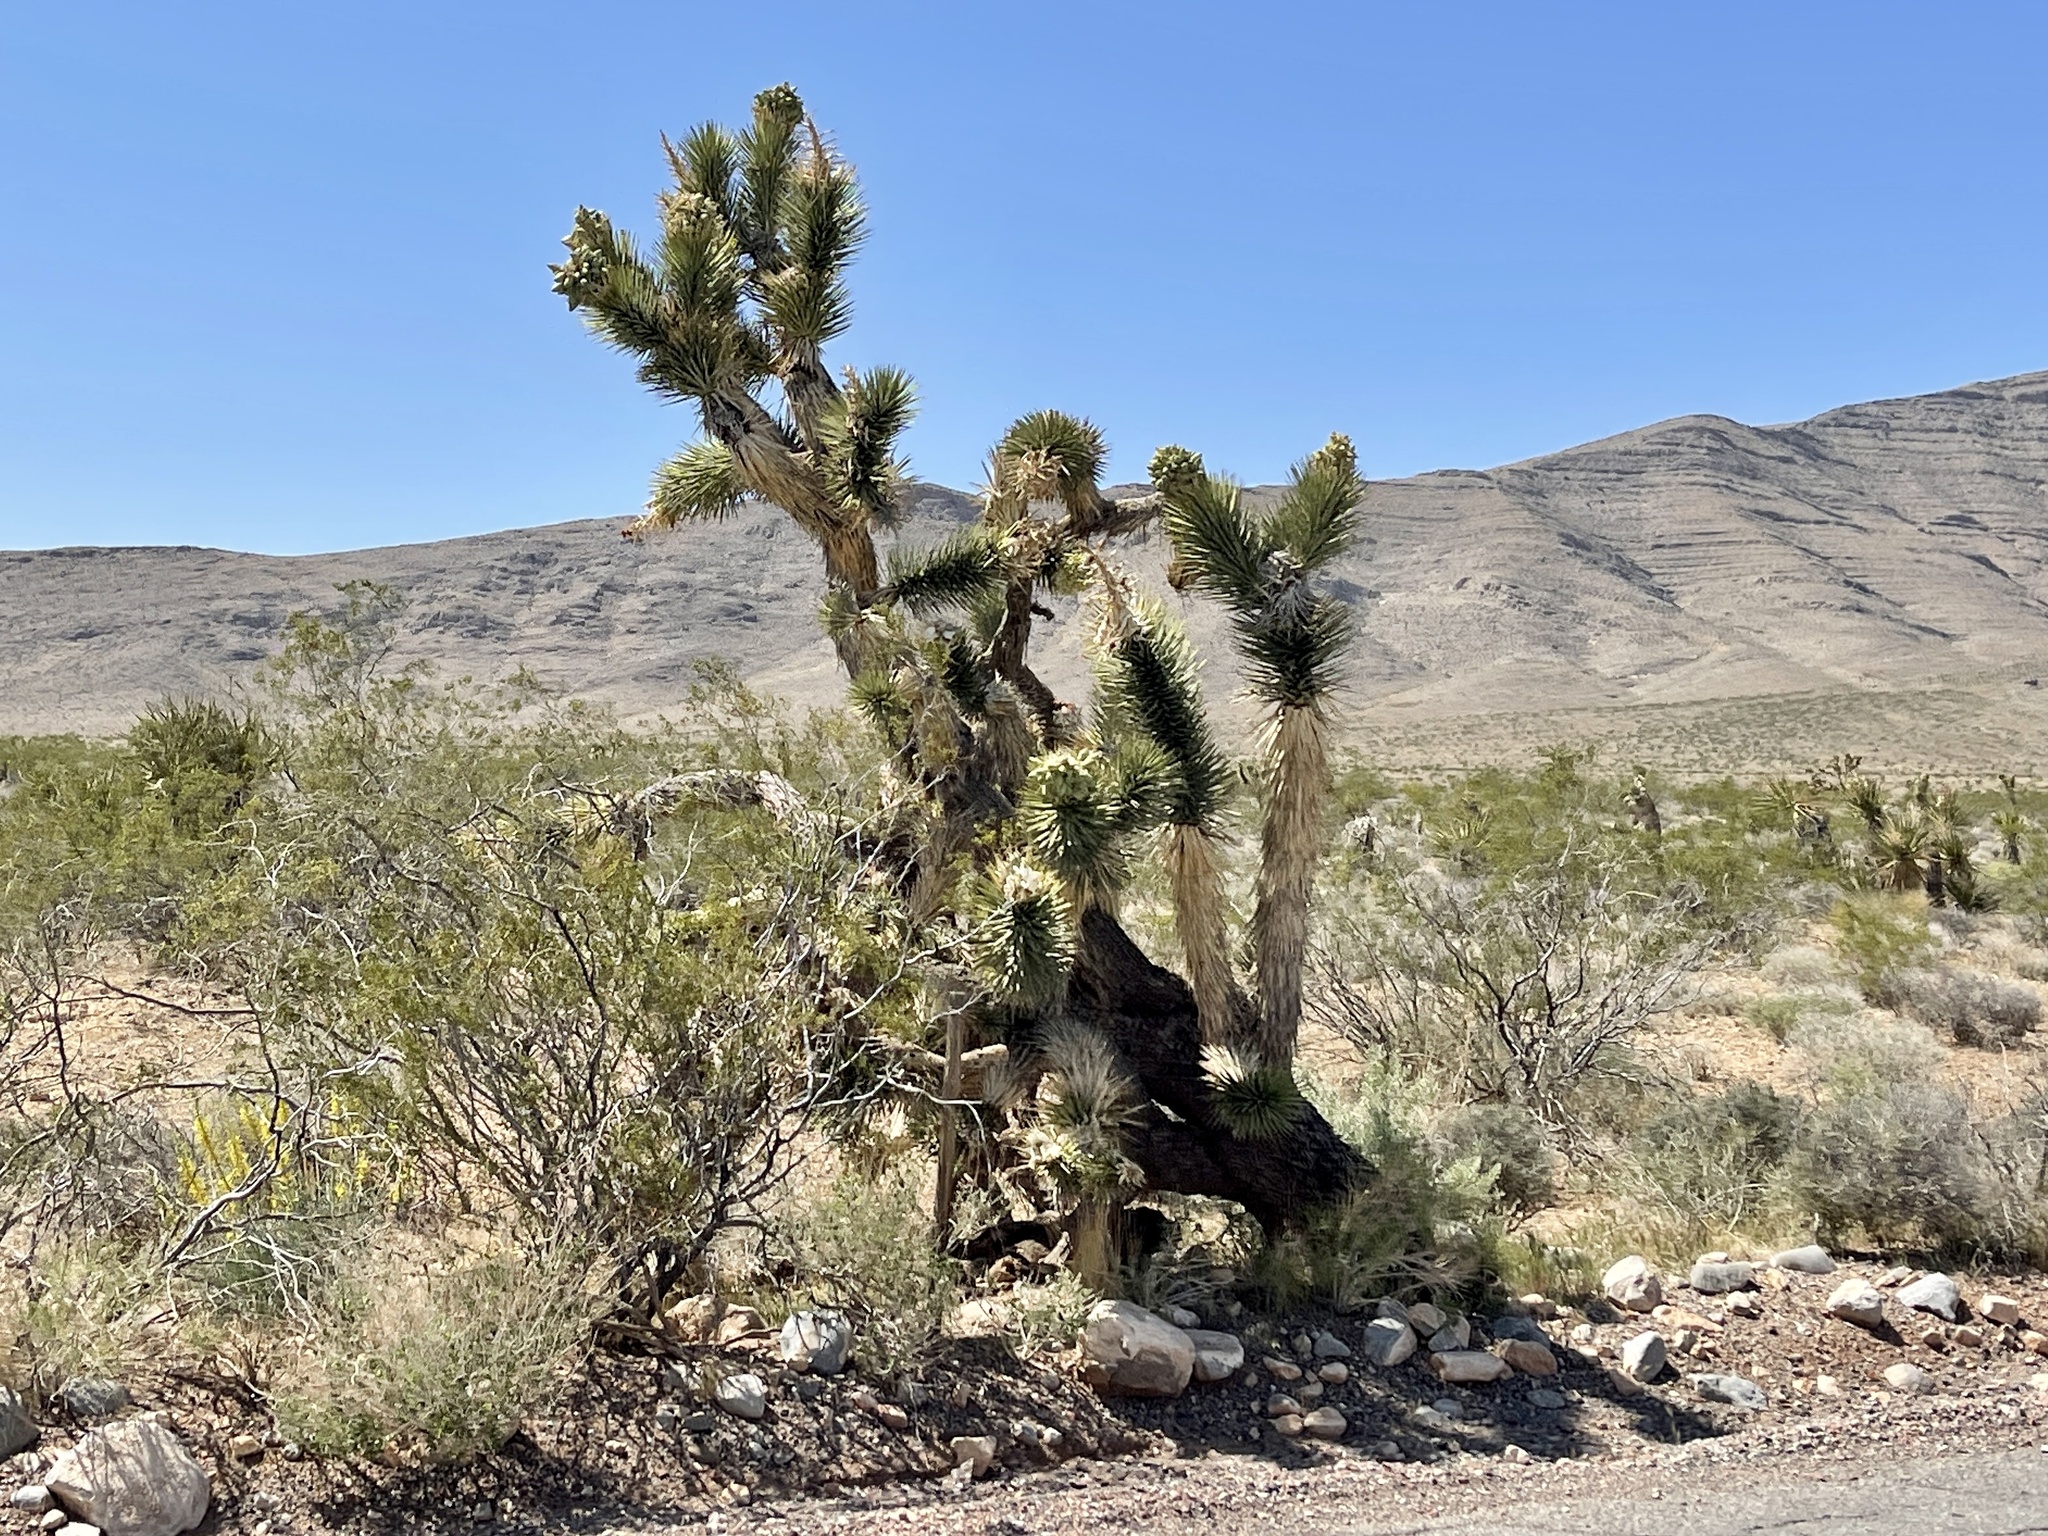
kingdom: Plantae
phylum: Tracheophyta
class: Liliopsida
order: Asparagales
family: Asparagaceae
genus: Yucca
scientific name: Yucca brevifolia
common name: Joshua tree
